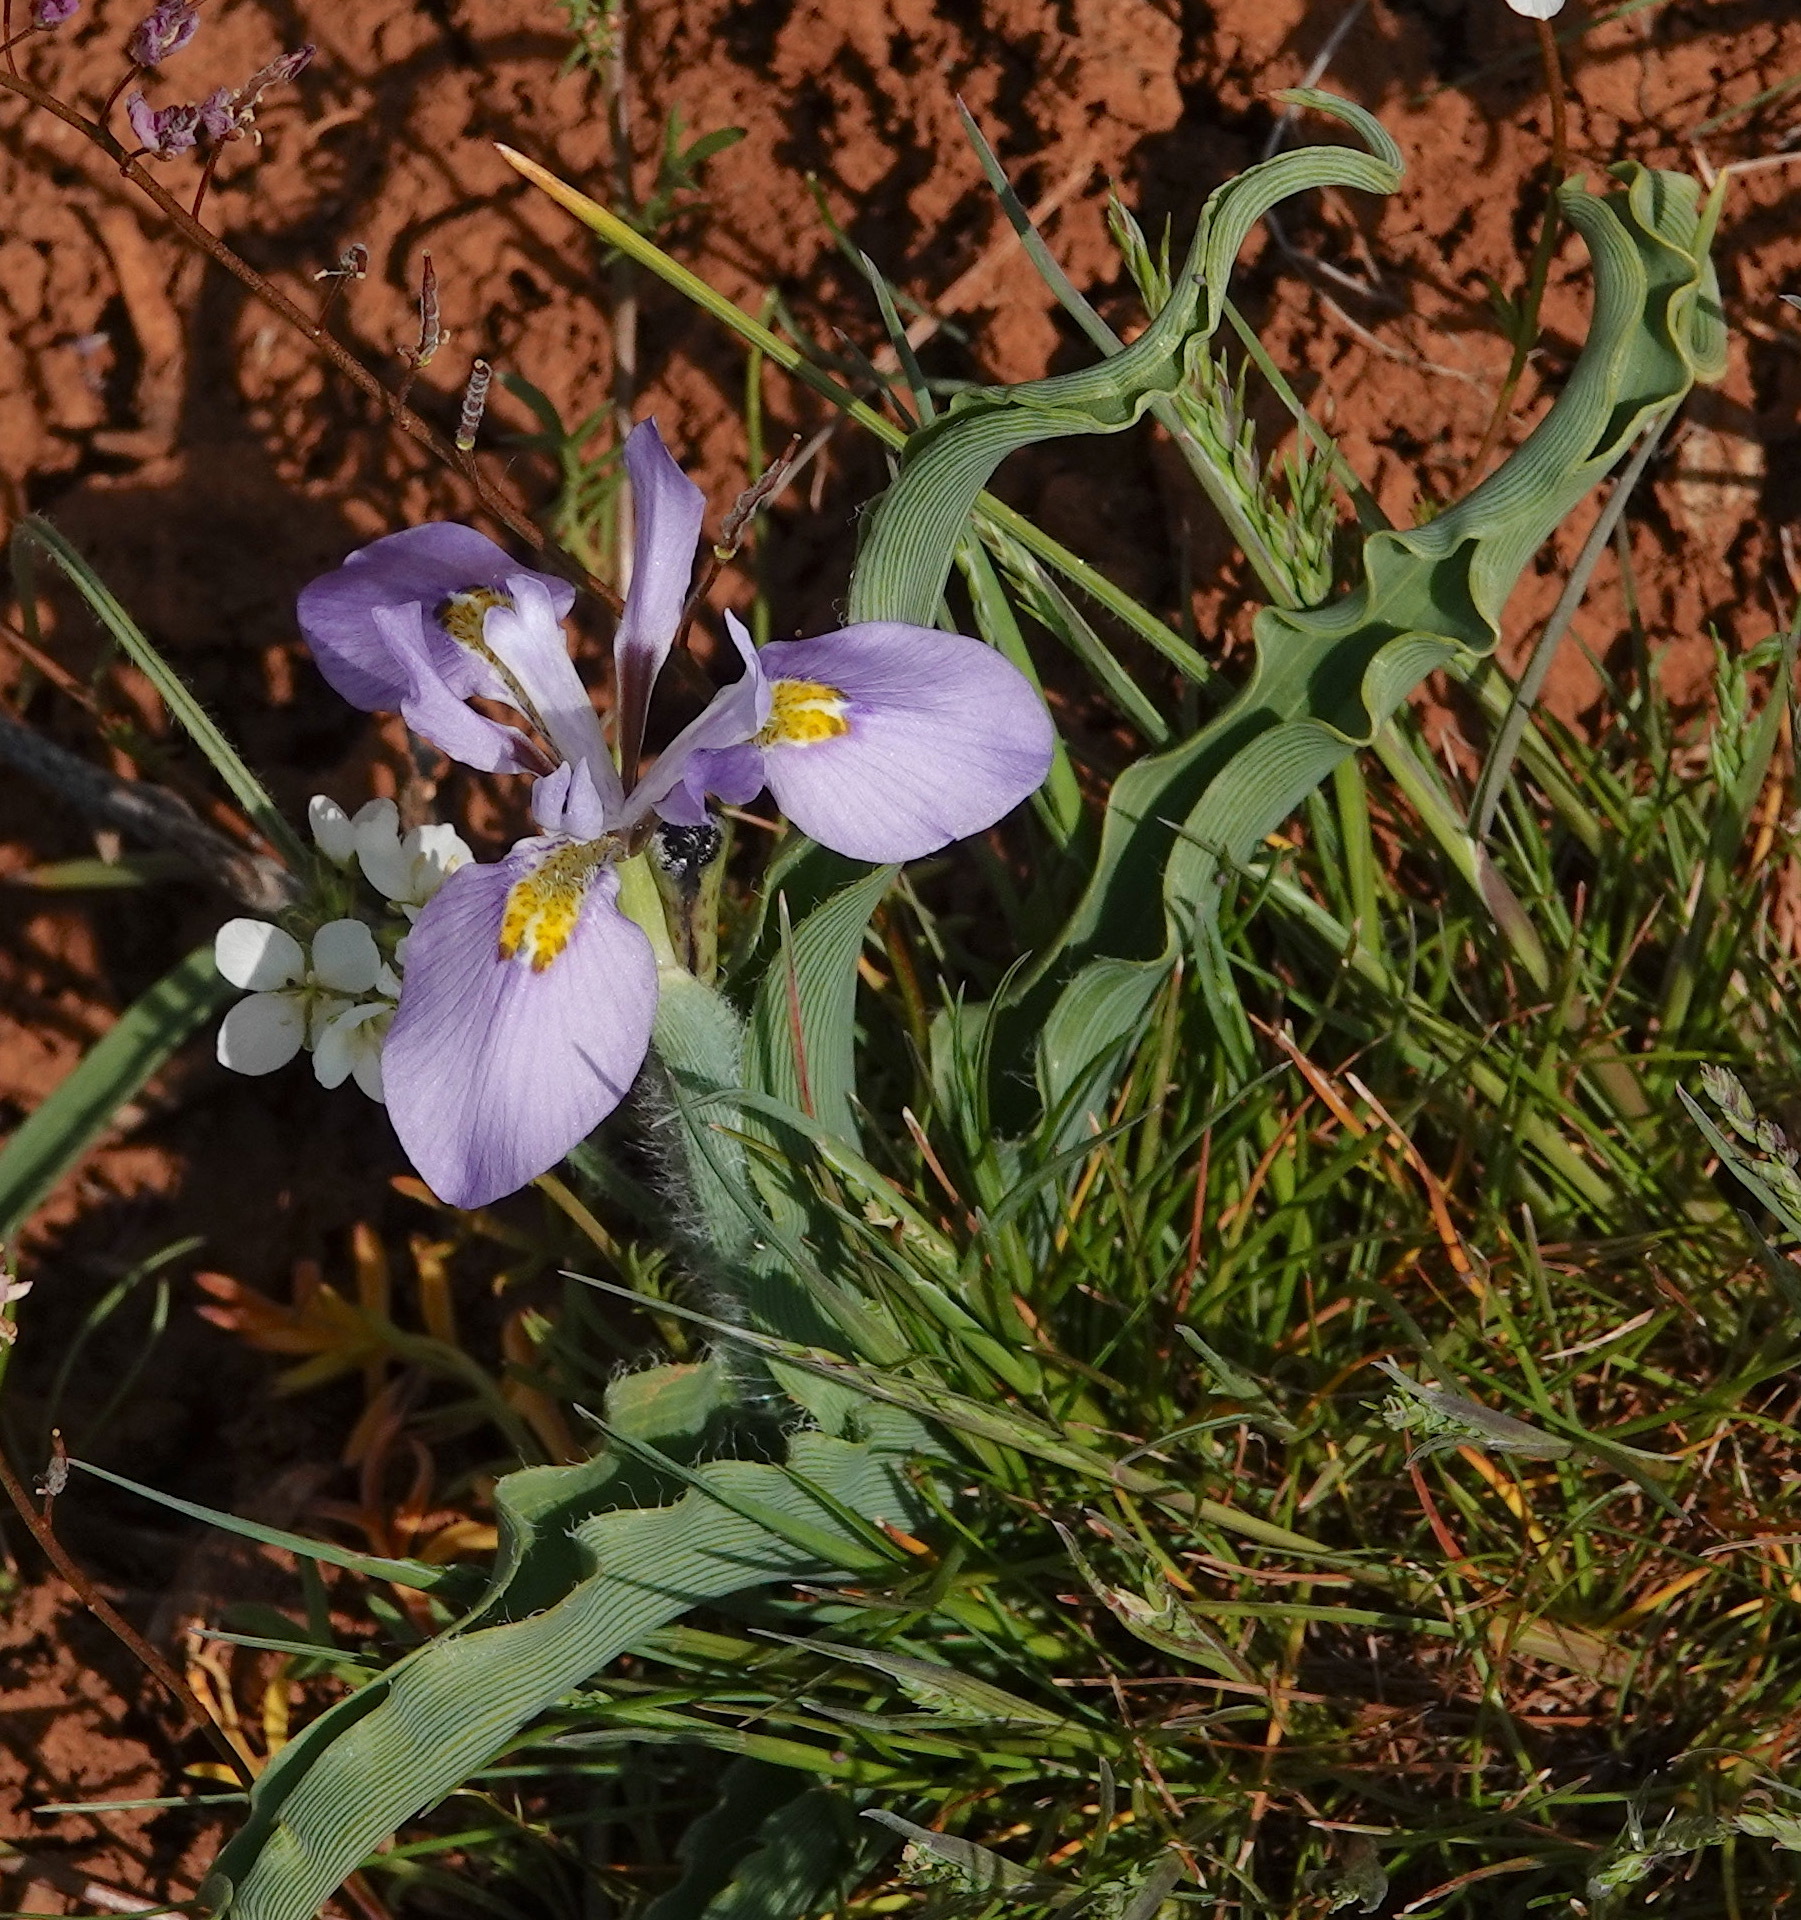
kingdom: Plantae
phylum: Tracheophyta
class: Liliopsida
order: Asparagales
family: Iridaceae
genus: Moraea
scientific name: Moraea ciliata
